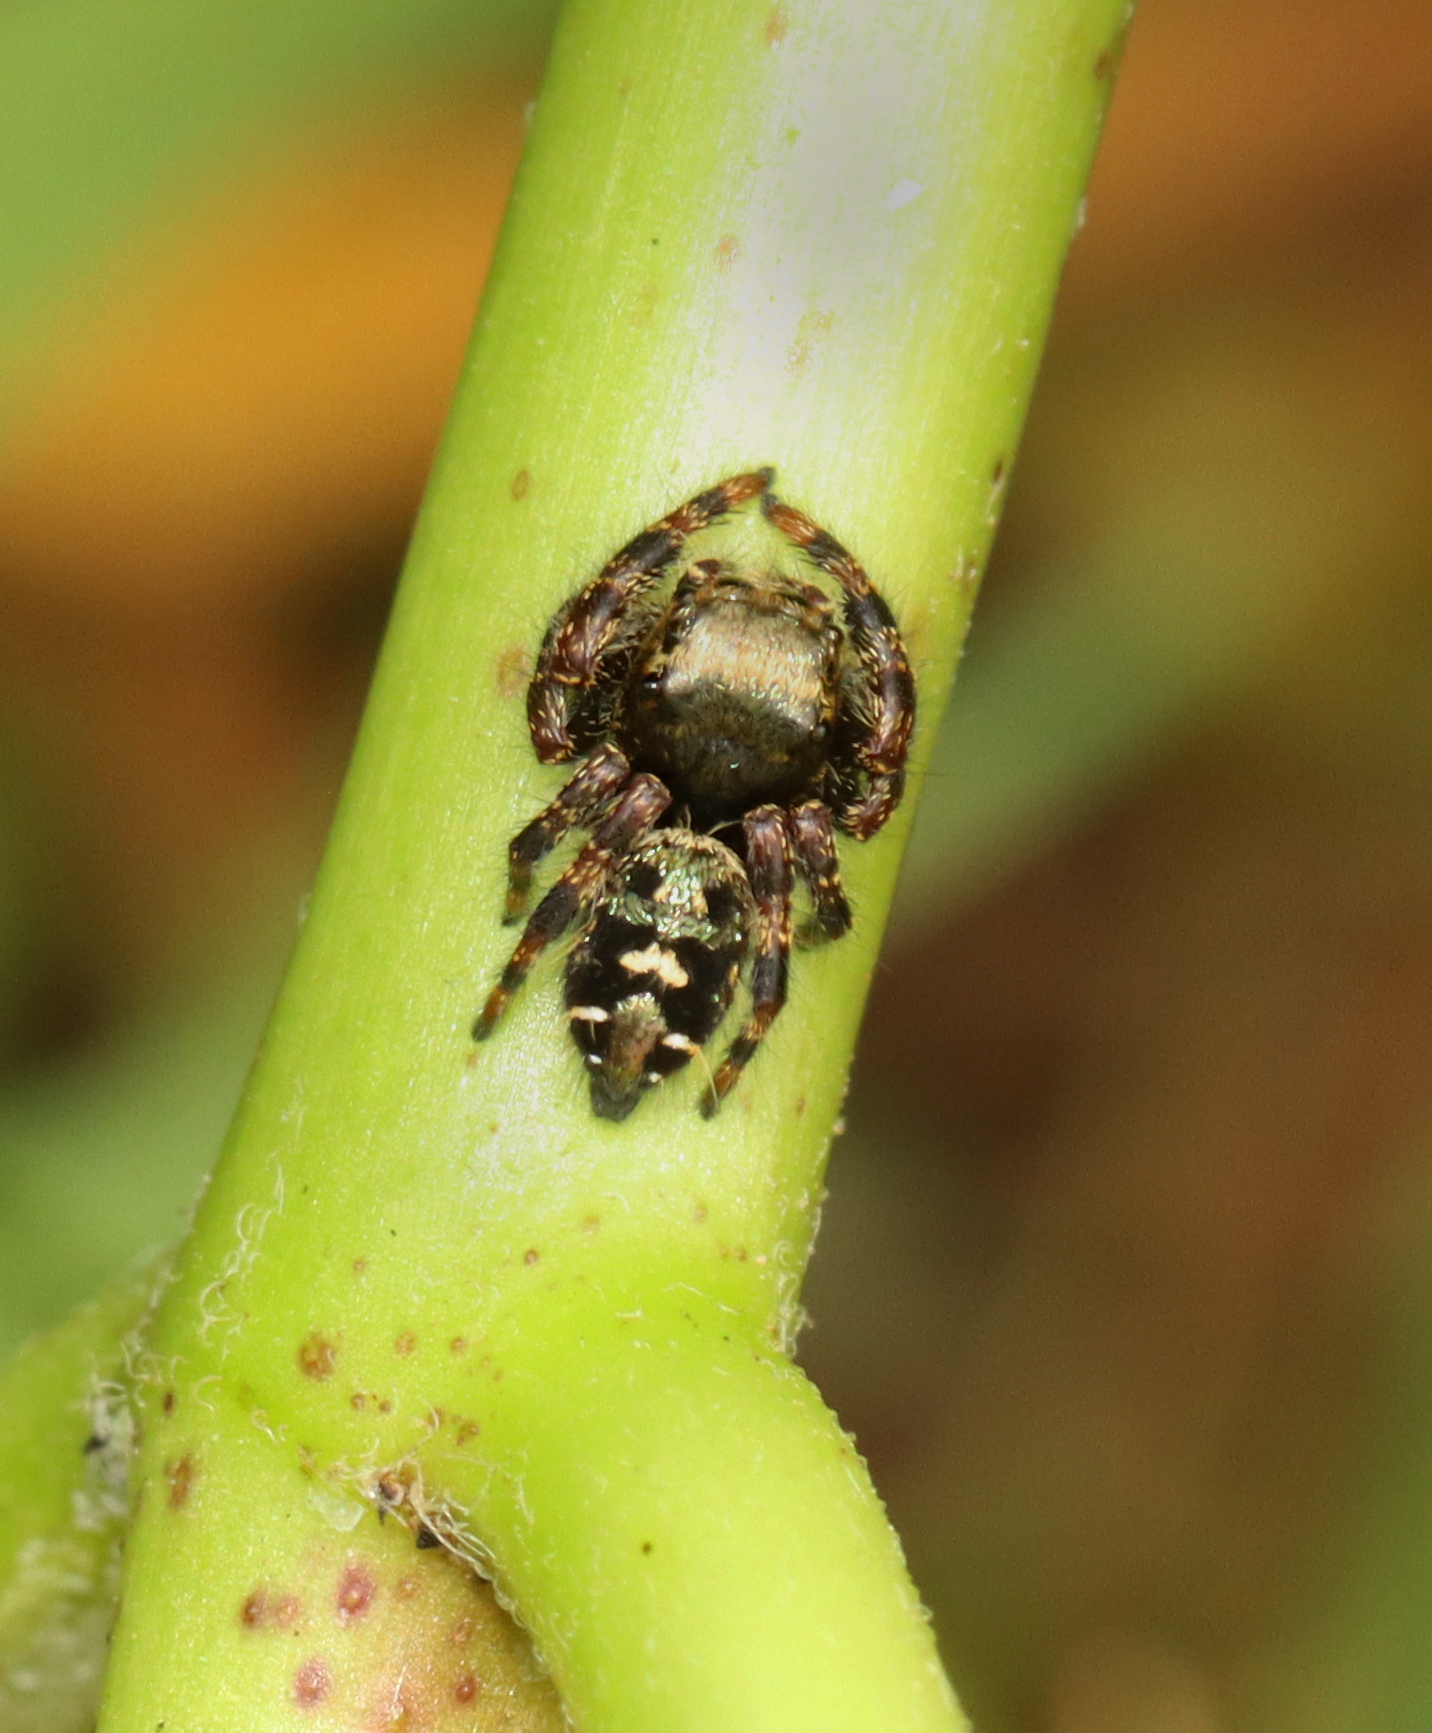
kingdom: Animalia
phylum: Arthropoda
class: Arachnida
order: Araneae
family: Salticidae
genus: Phidippus
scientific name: Phidippus audax
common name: Bold jumper
